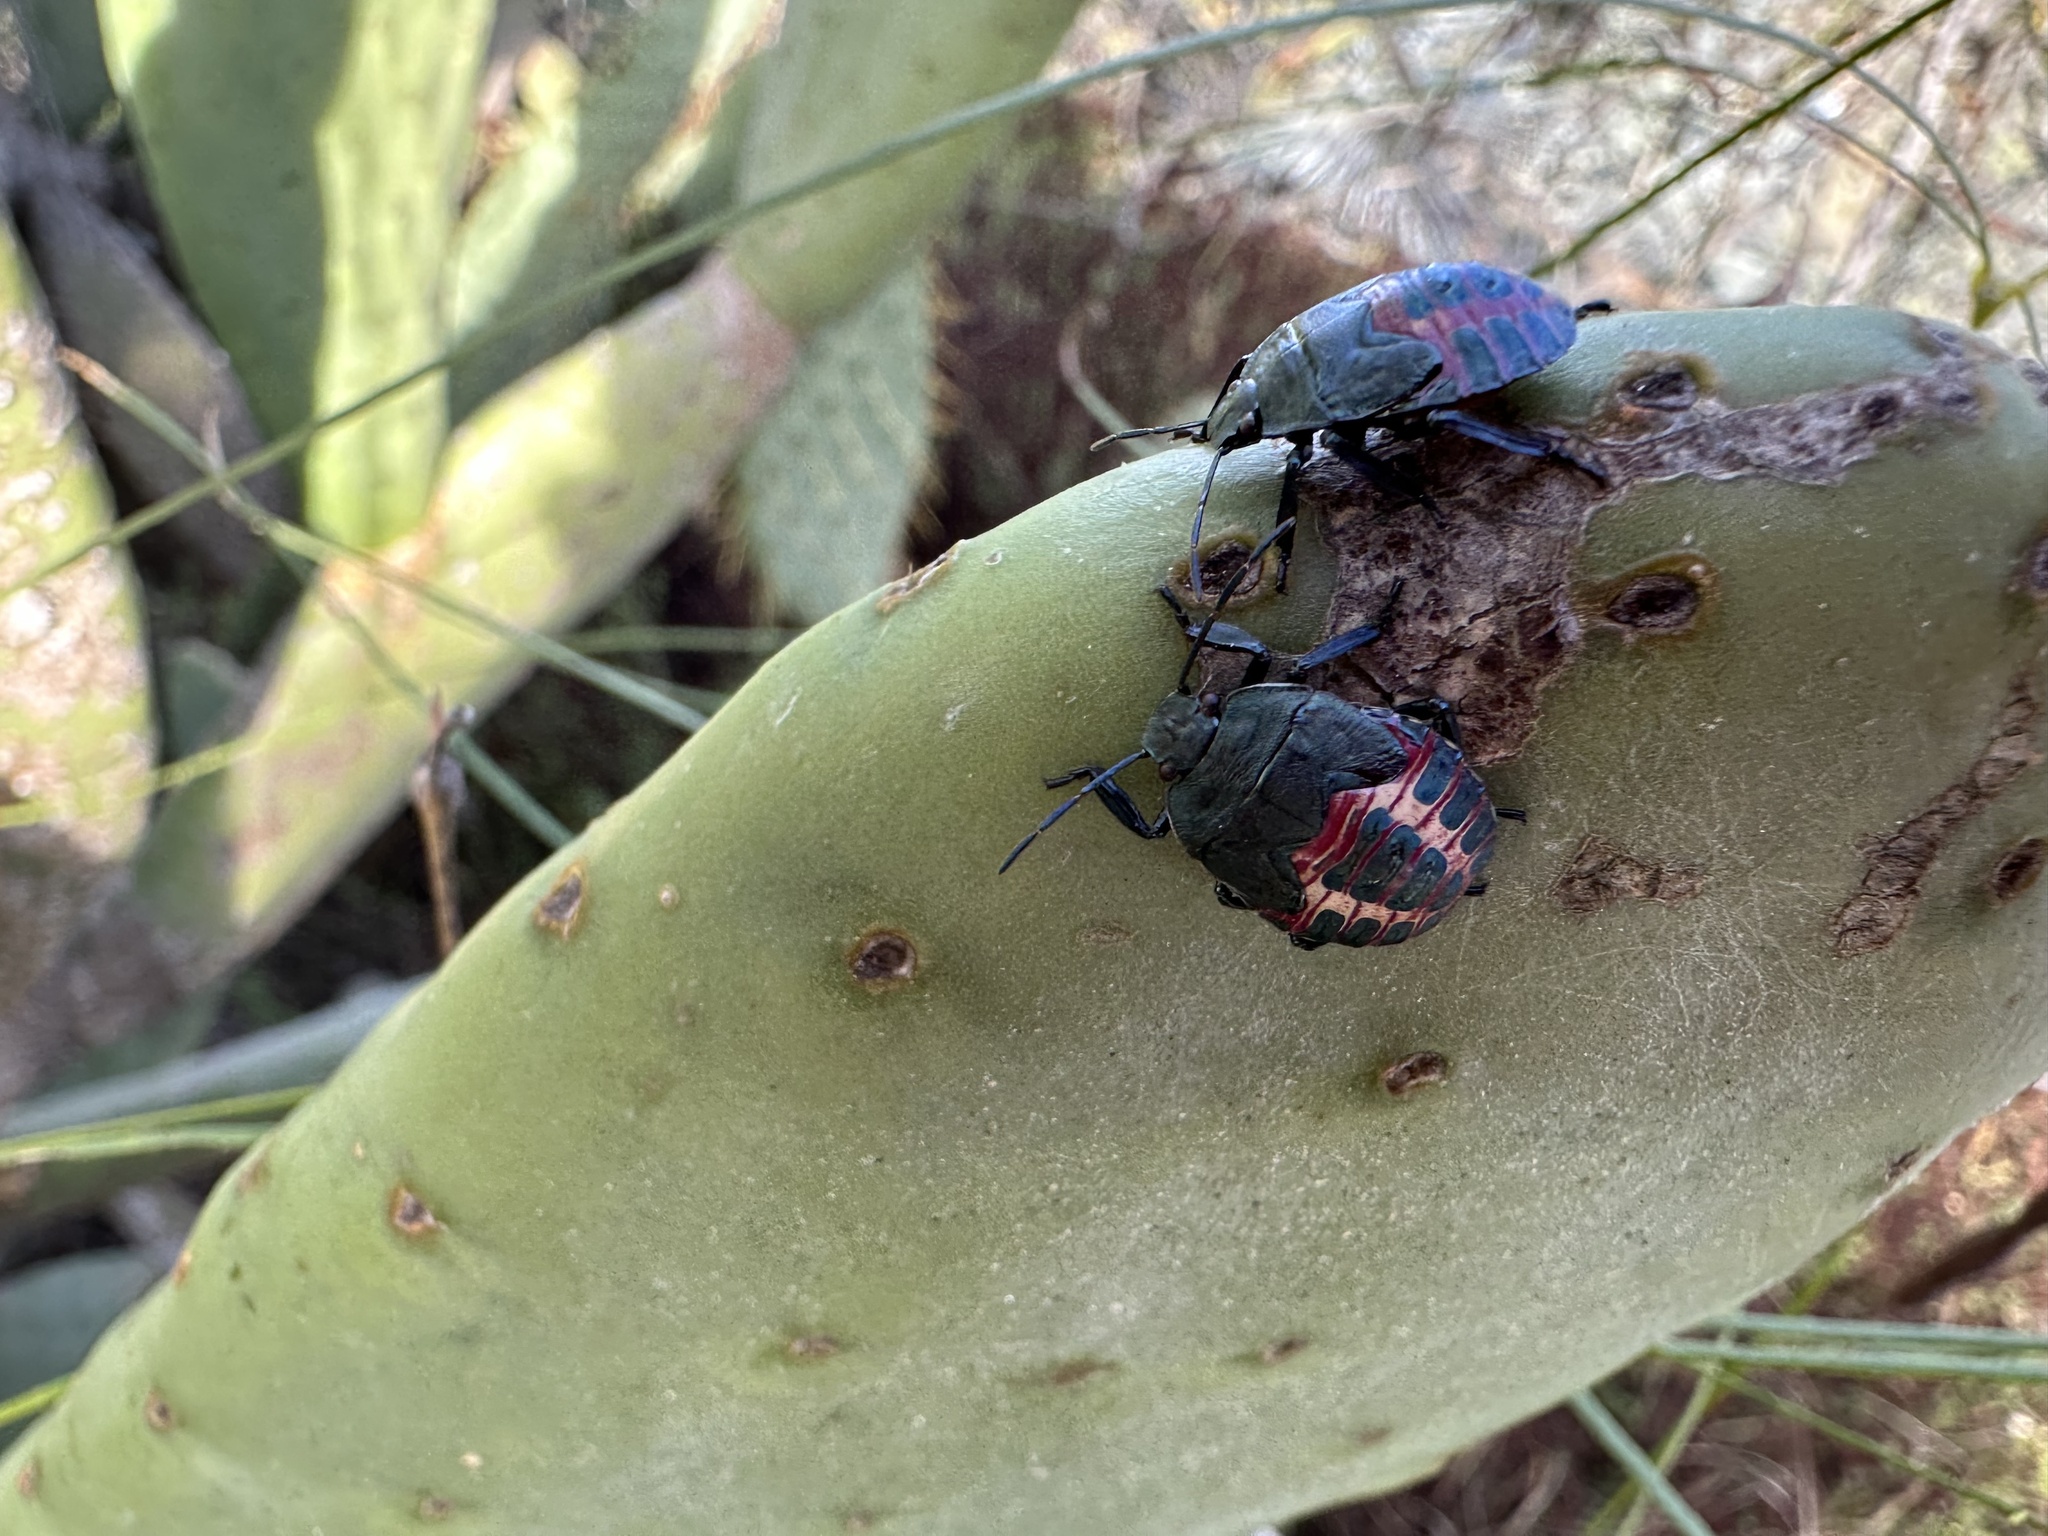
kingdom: Animalia
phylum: Arthropoda
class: Insecta
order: Hemiptera
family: Pentatomidae
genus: Pellaea
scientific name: Pellaea stictica
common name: Stink bug
